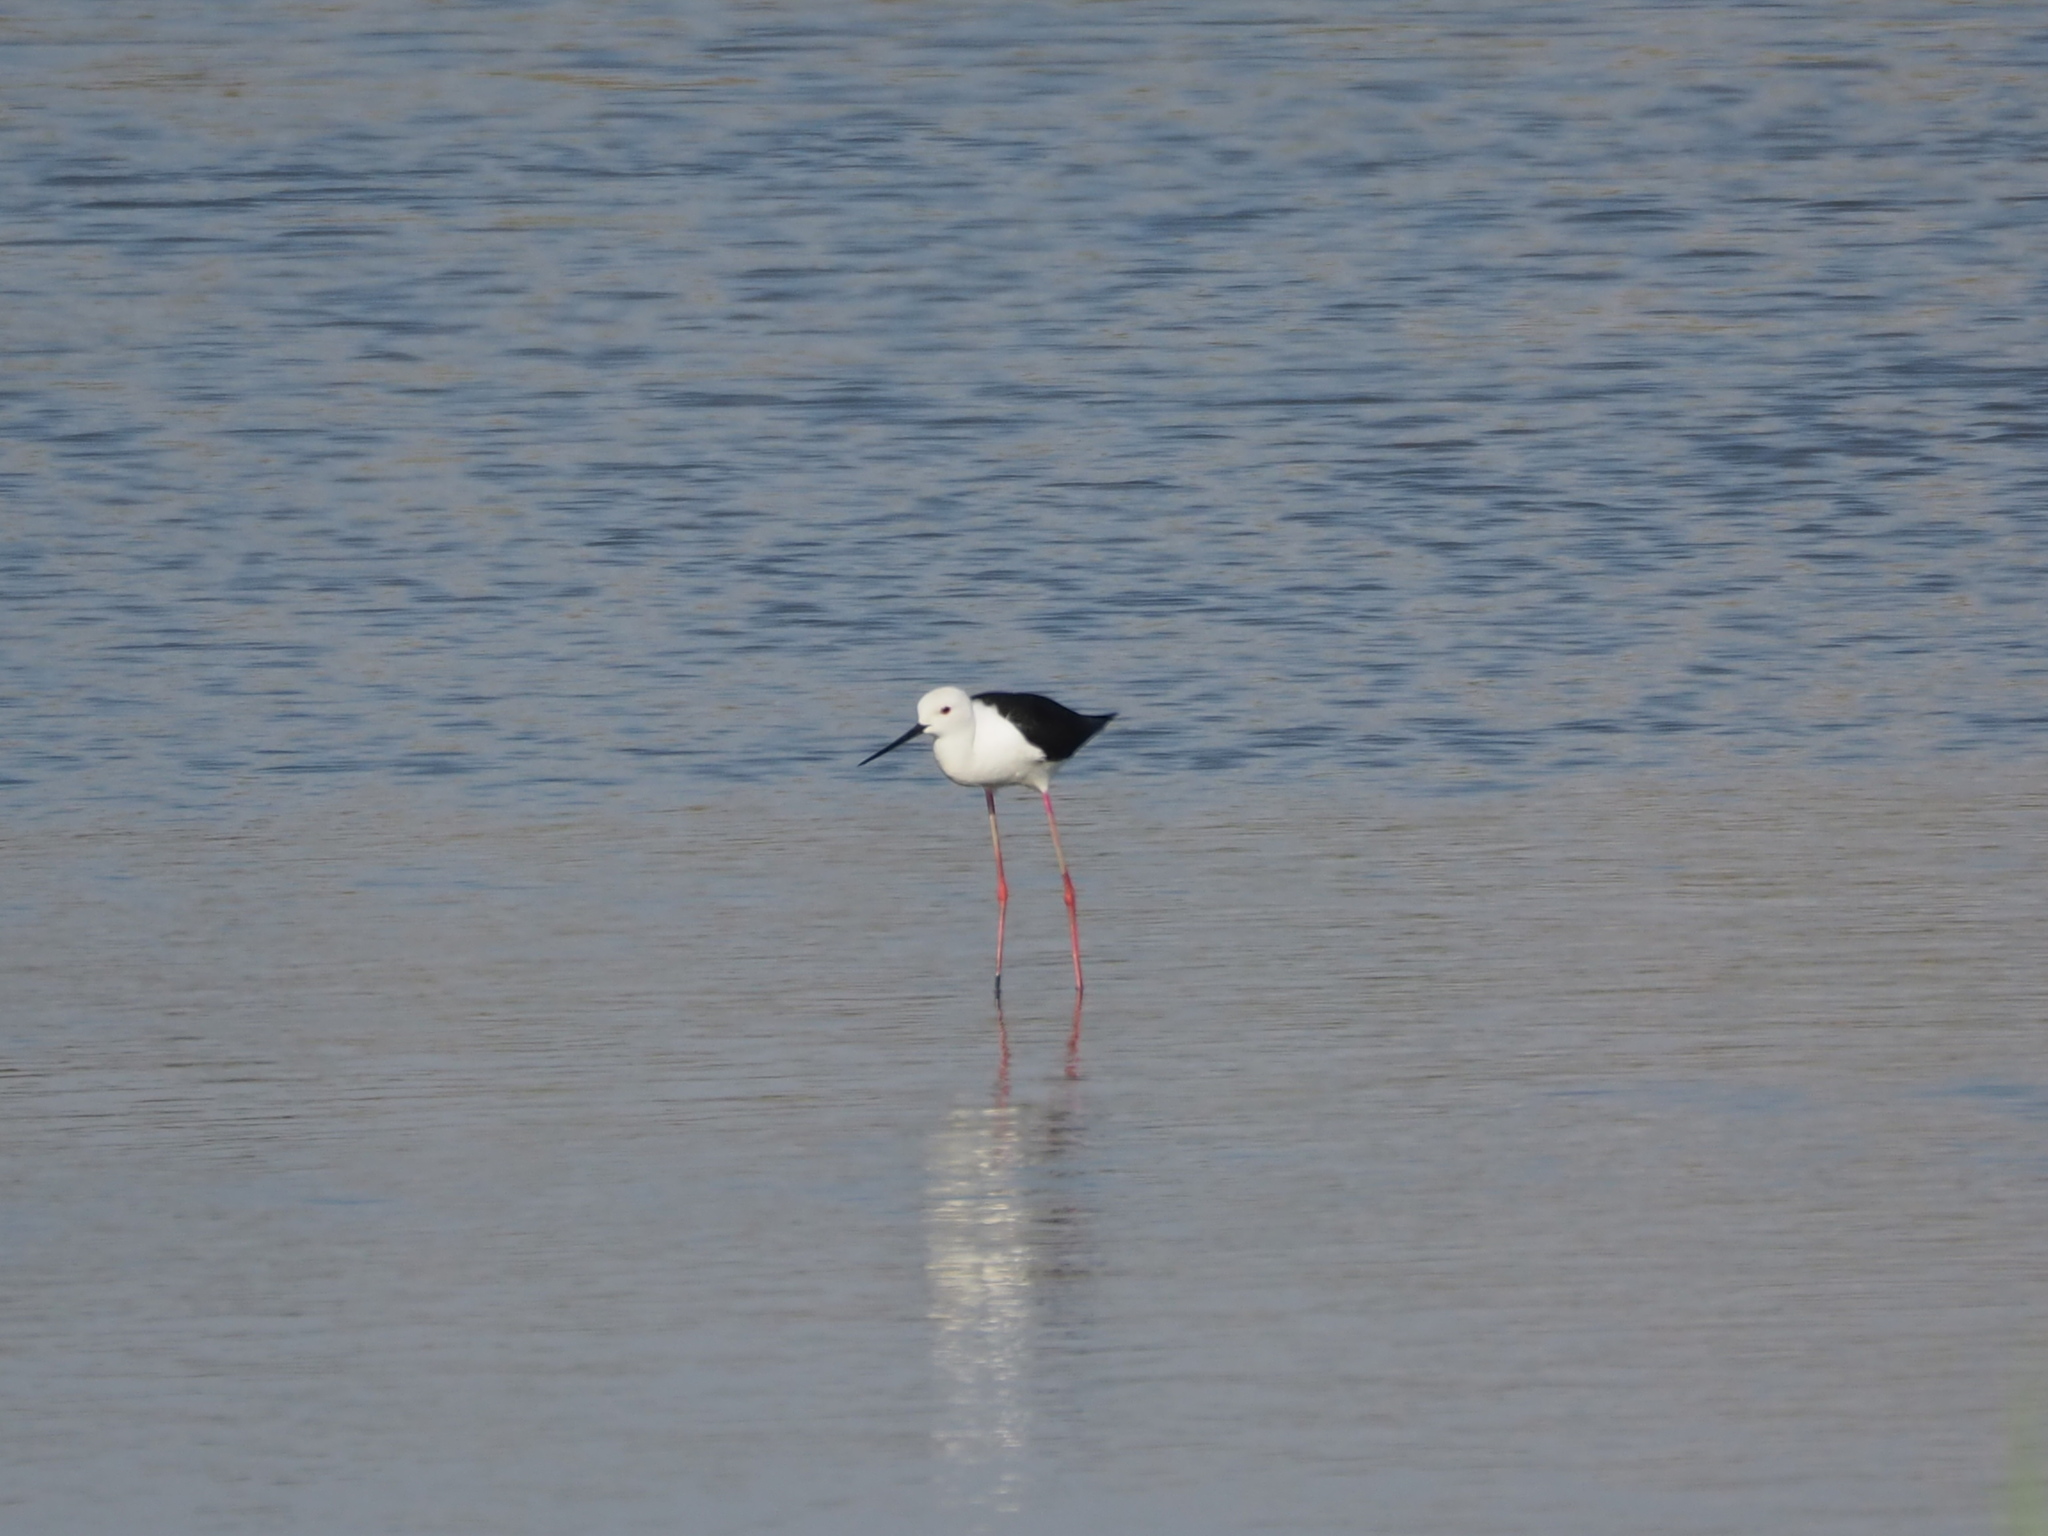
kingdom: Animalia
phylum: Chordata
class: Aves
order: Charadriiformes
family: Recurvirostridae
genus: Himantopus
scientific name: Himantopus himantopus
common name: Black-winged stilt
